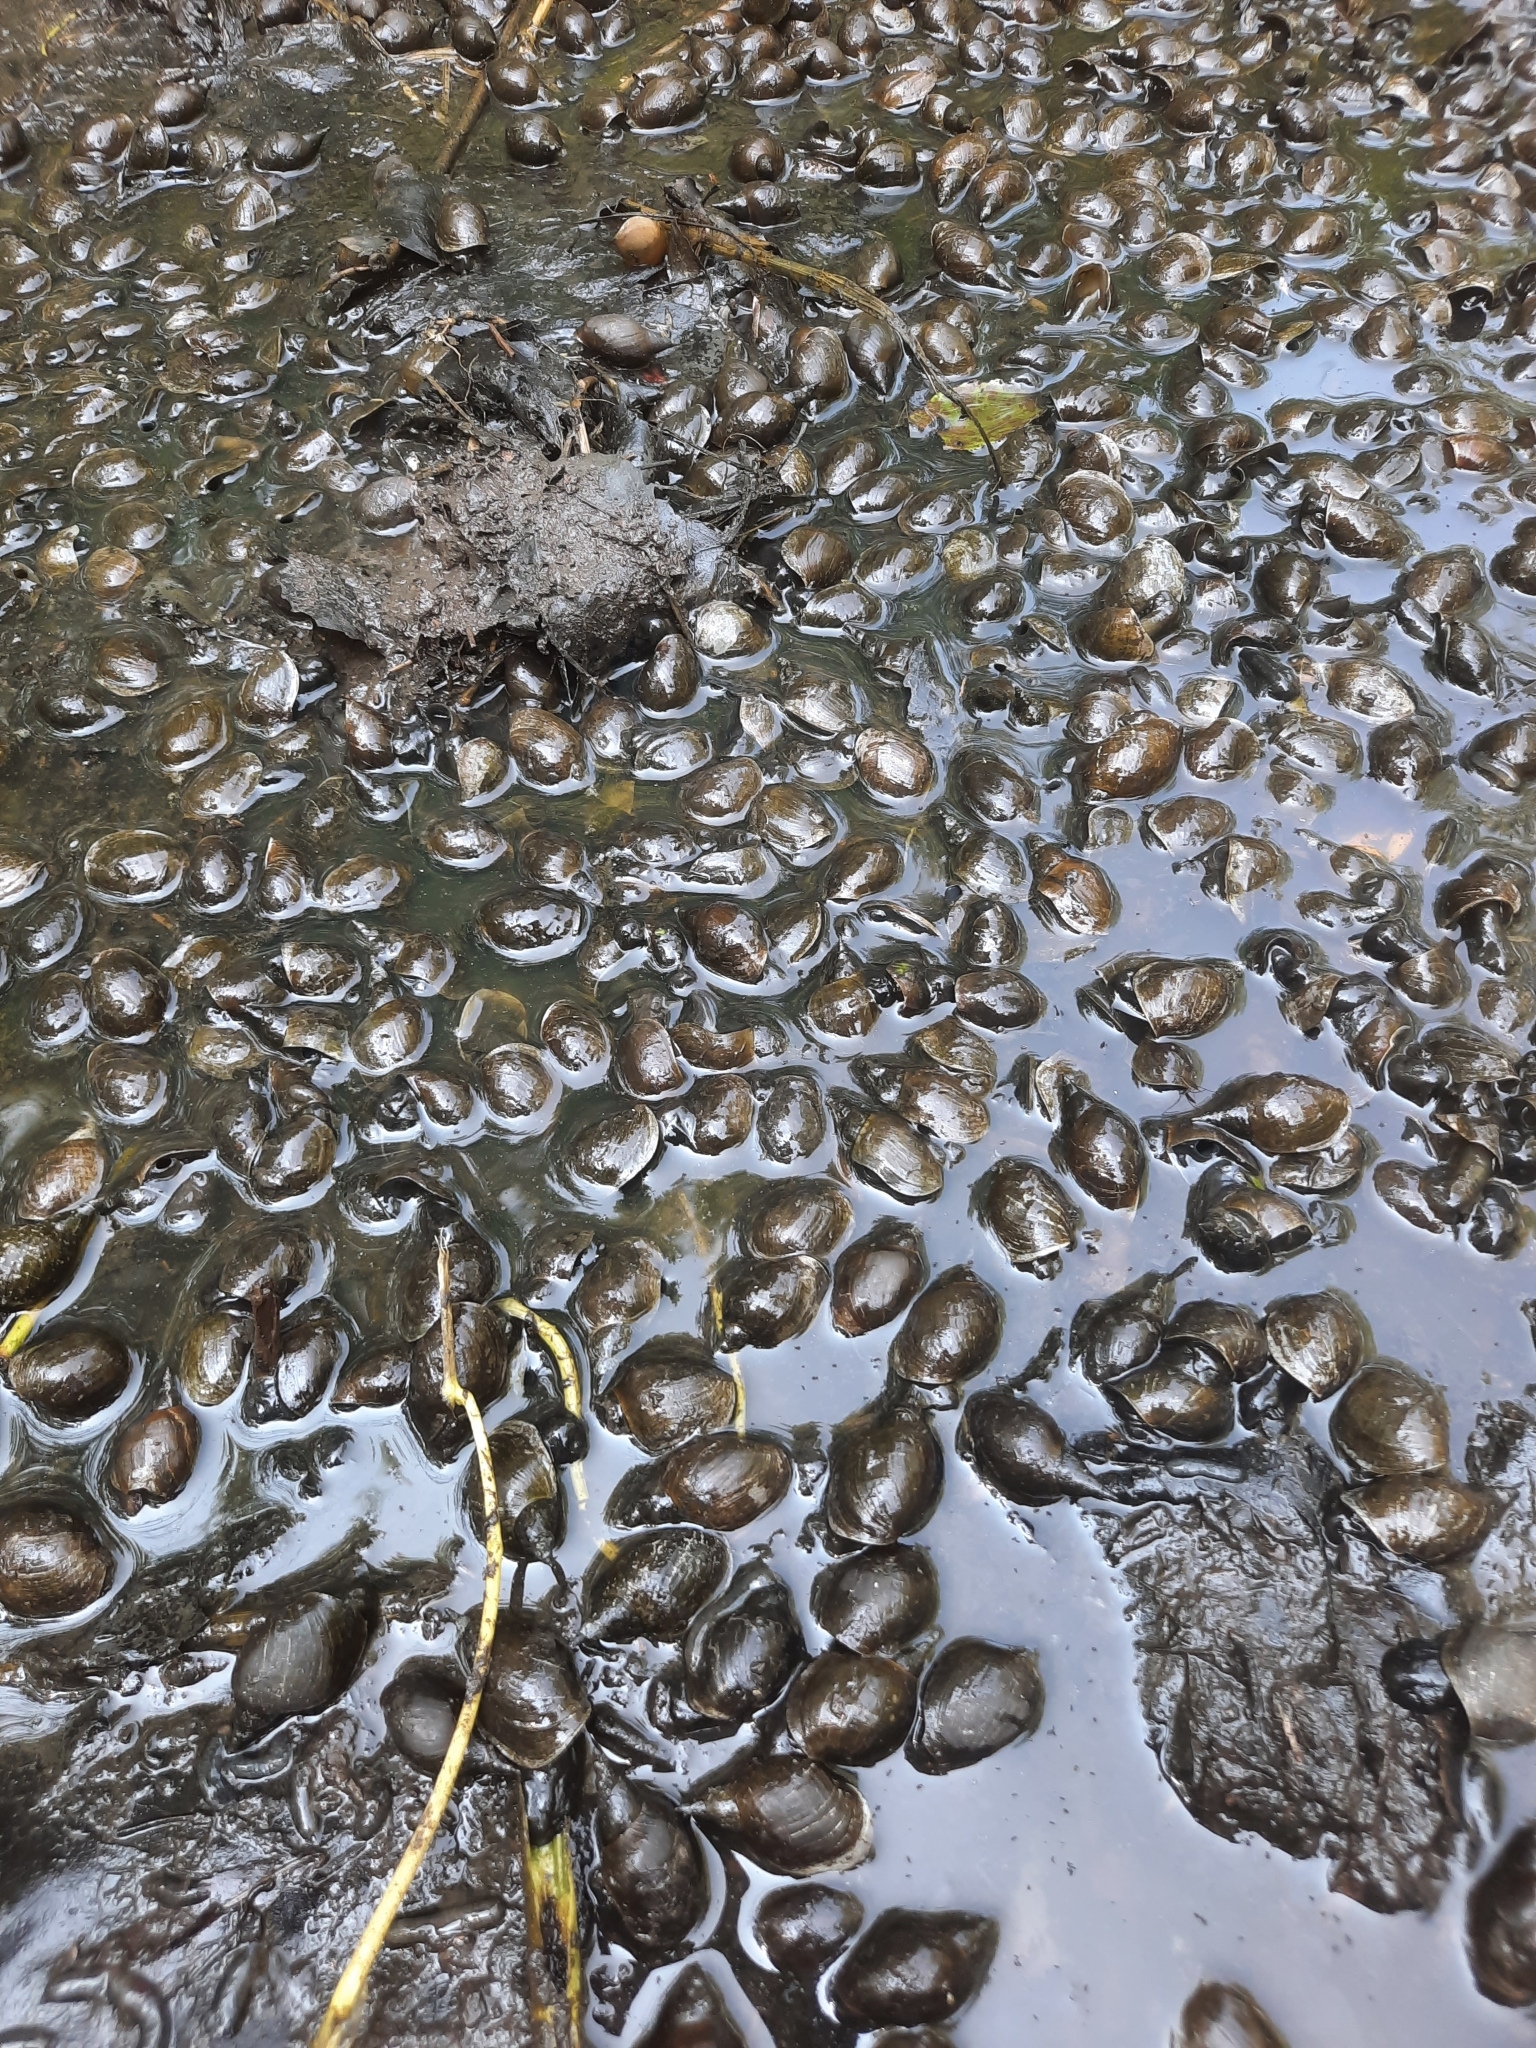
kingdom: Animalia
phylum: Mollusca
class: Gastropoda
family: Lymnaeidae
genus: Lymnaea
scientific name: Lymnaea stagnalis
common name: Great pond snail
